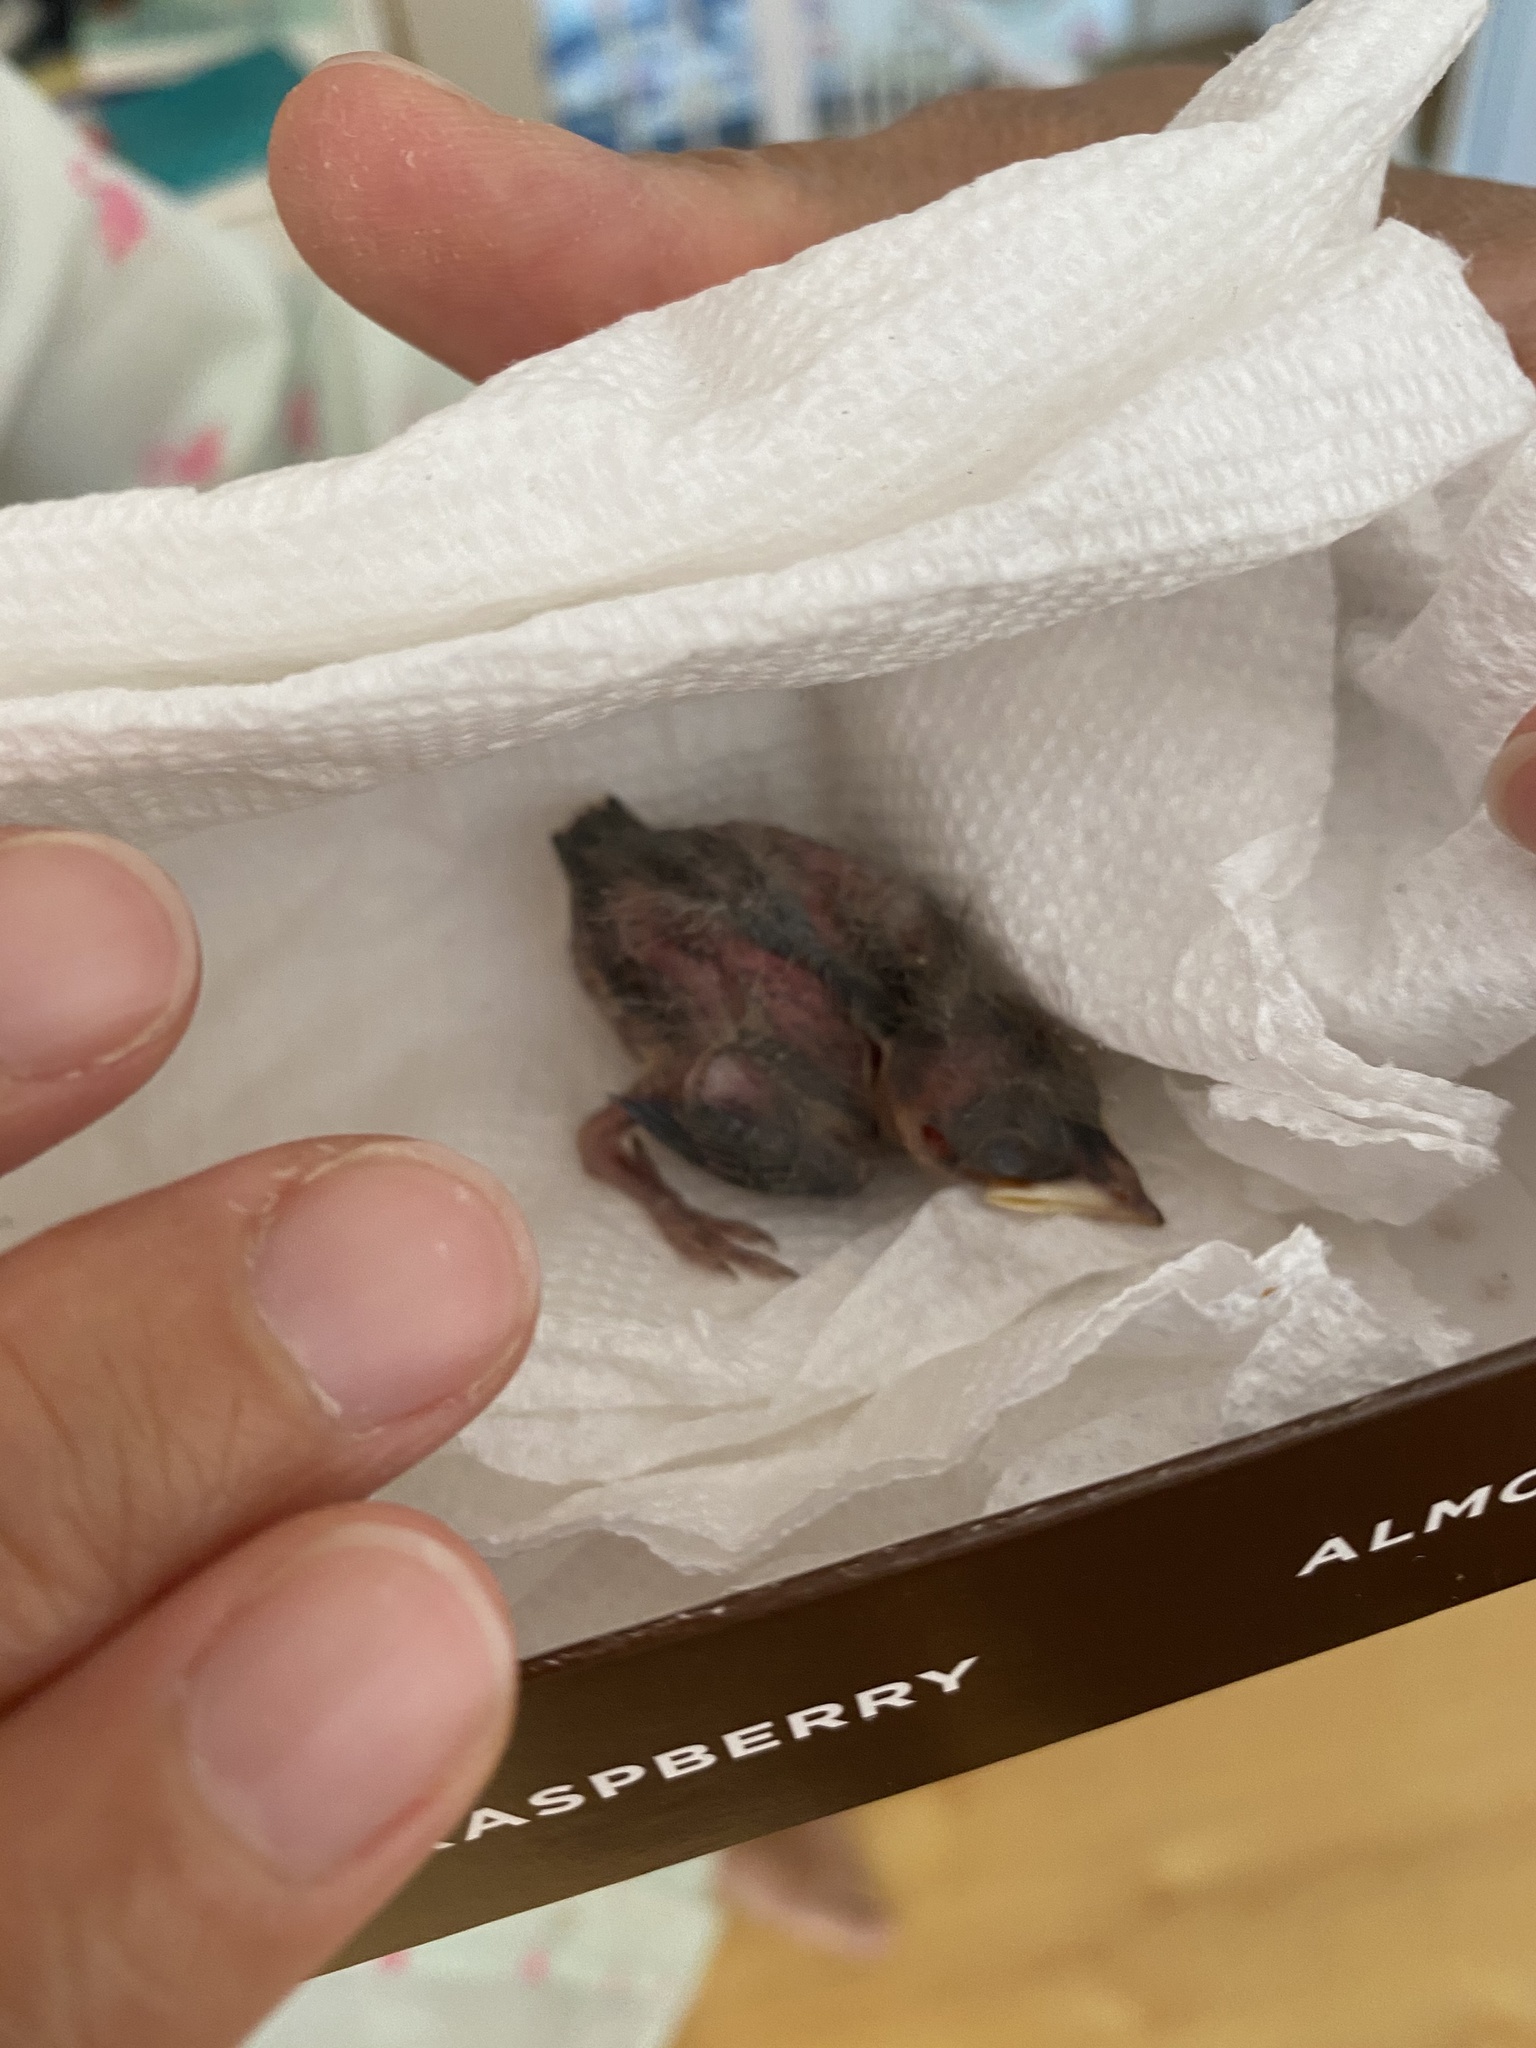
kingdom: Animalia
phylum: Chordata
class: Aves
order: Passeriformes
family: Hirundinidae
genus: Hirundo
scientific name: Hirundo rustica
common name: Barn swallow
